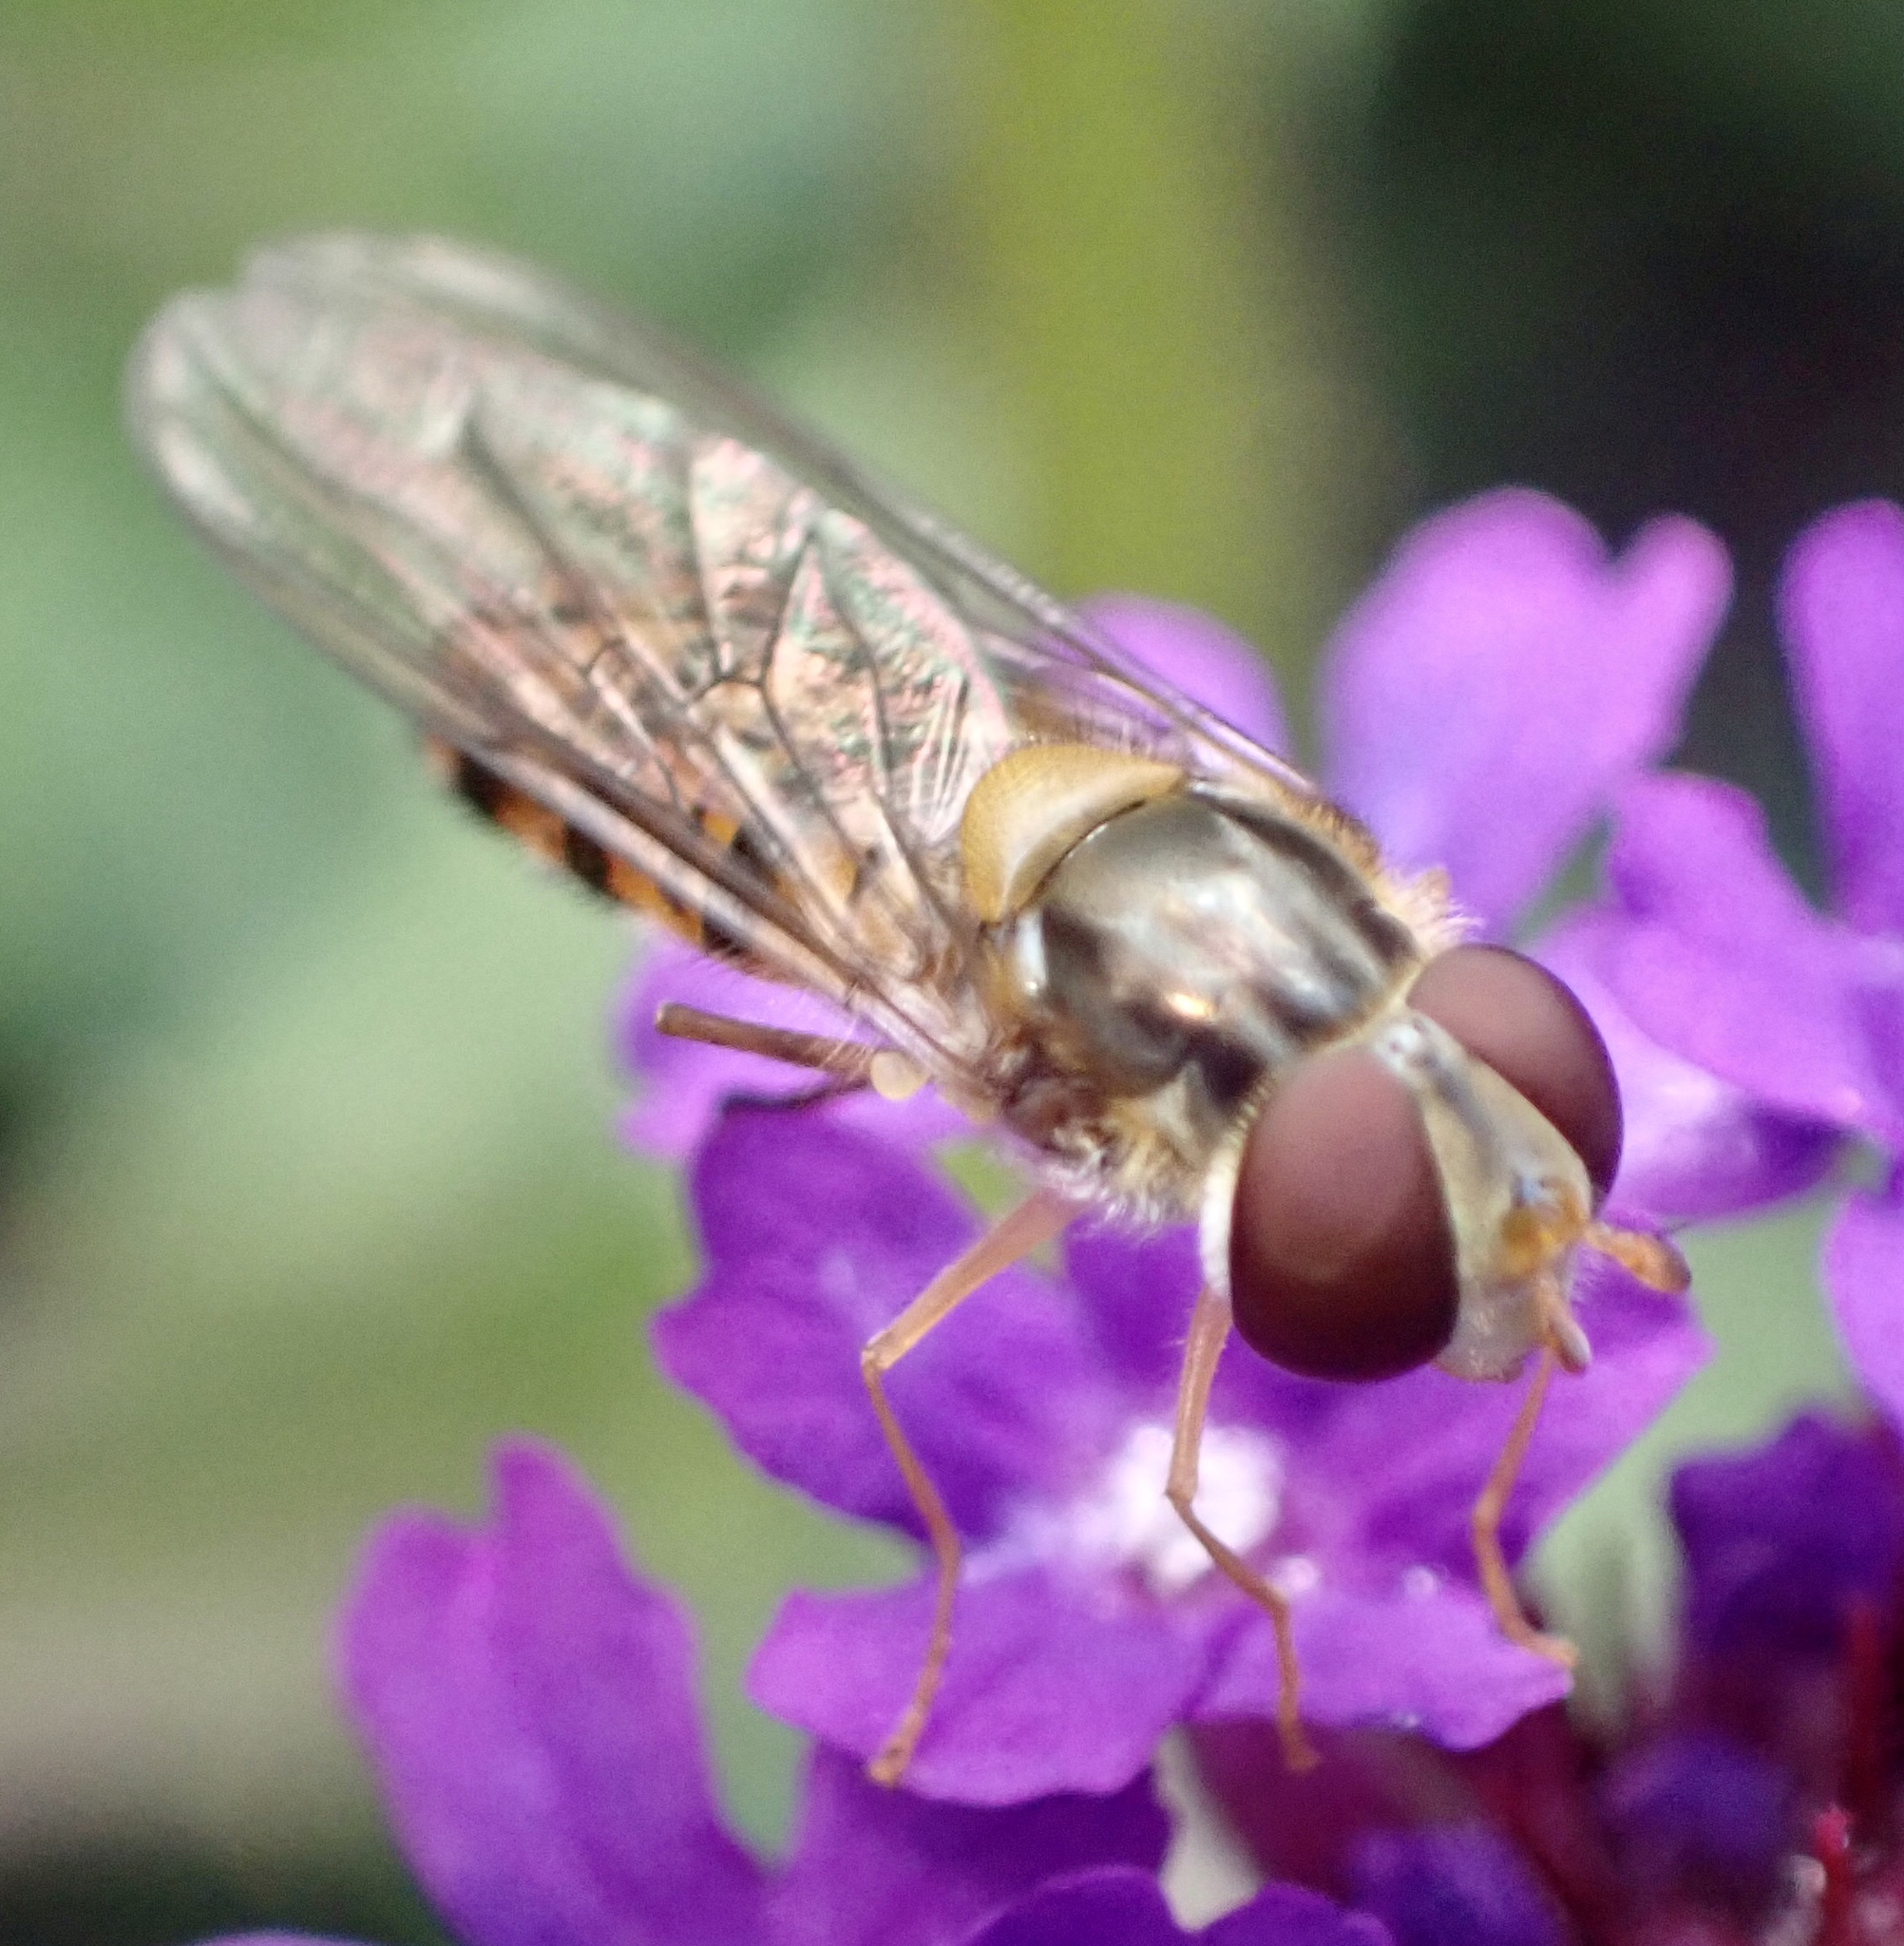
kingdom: Animalia
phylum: Arthropoda
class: Insecta
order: Diptera
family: Syrphidae
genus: Episyrphus
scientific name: Episyrphus balteatus
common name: Marmalade hoverfly
